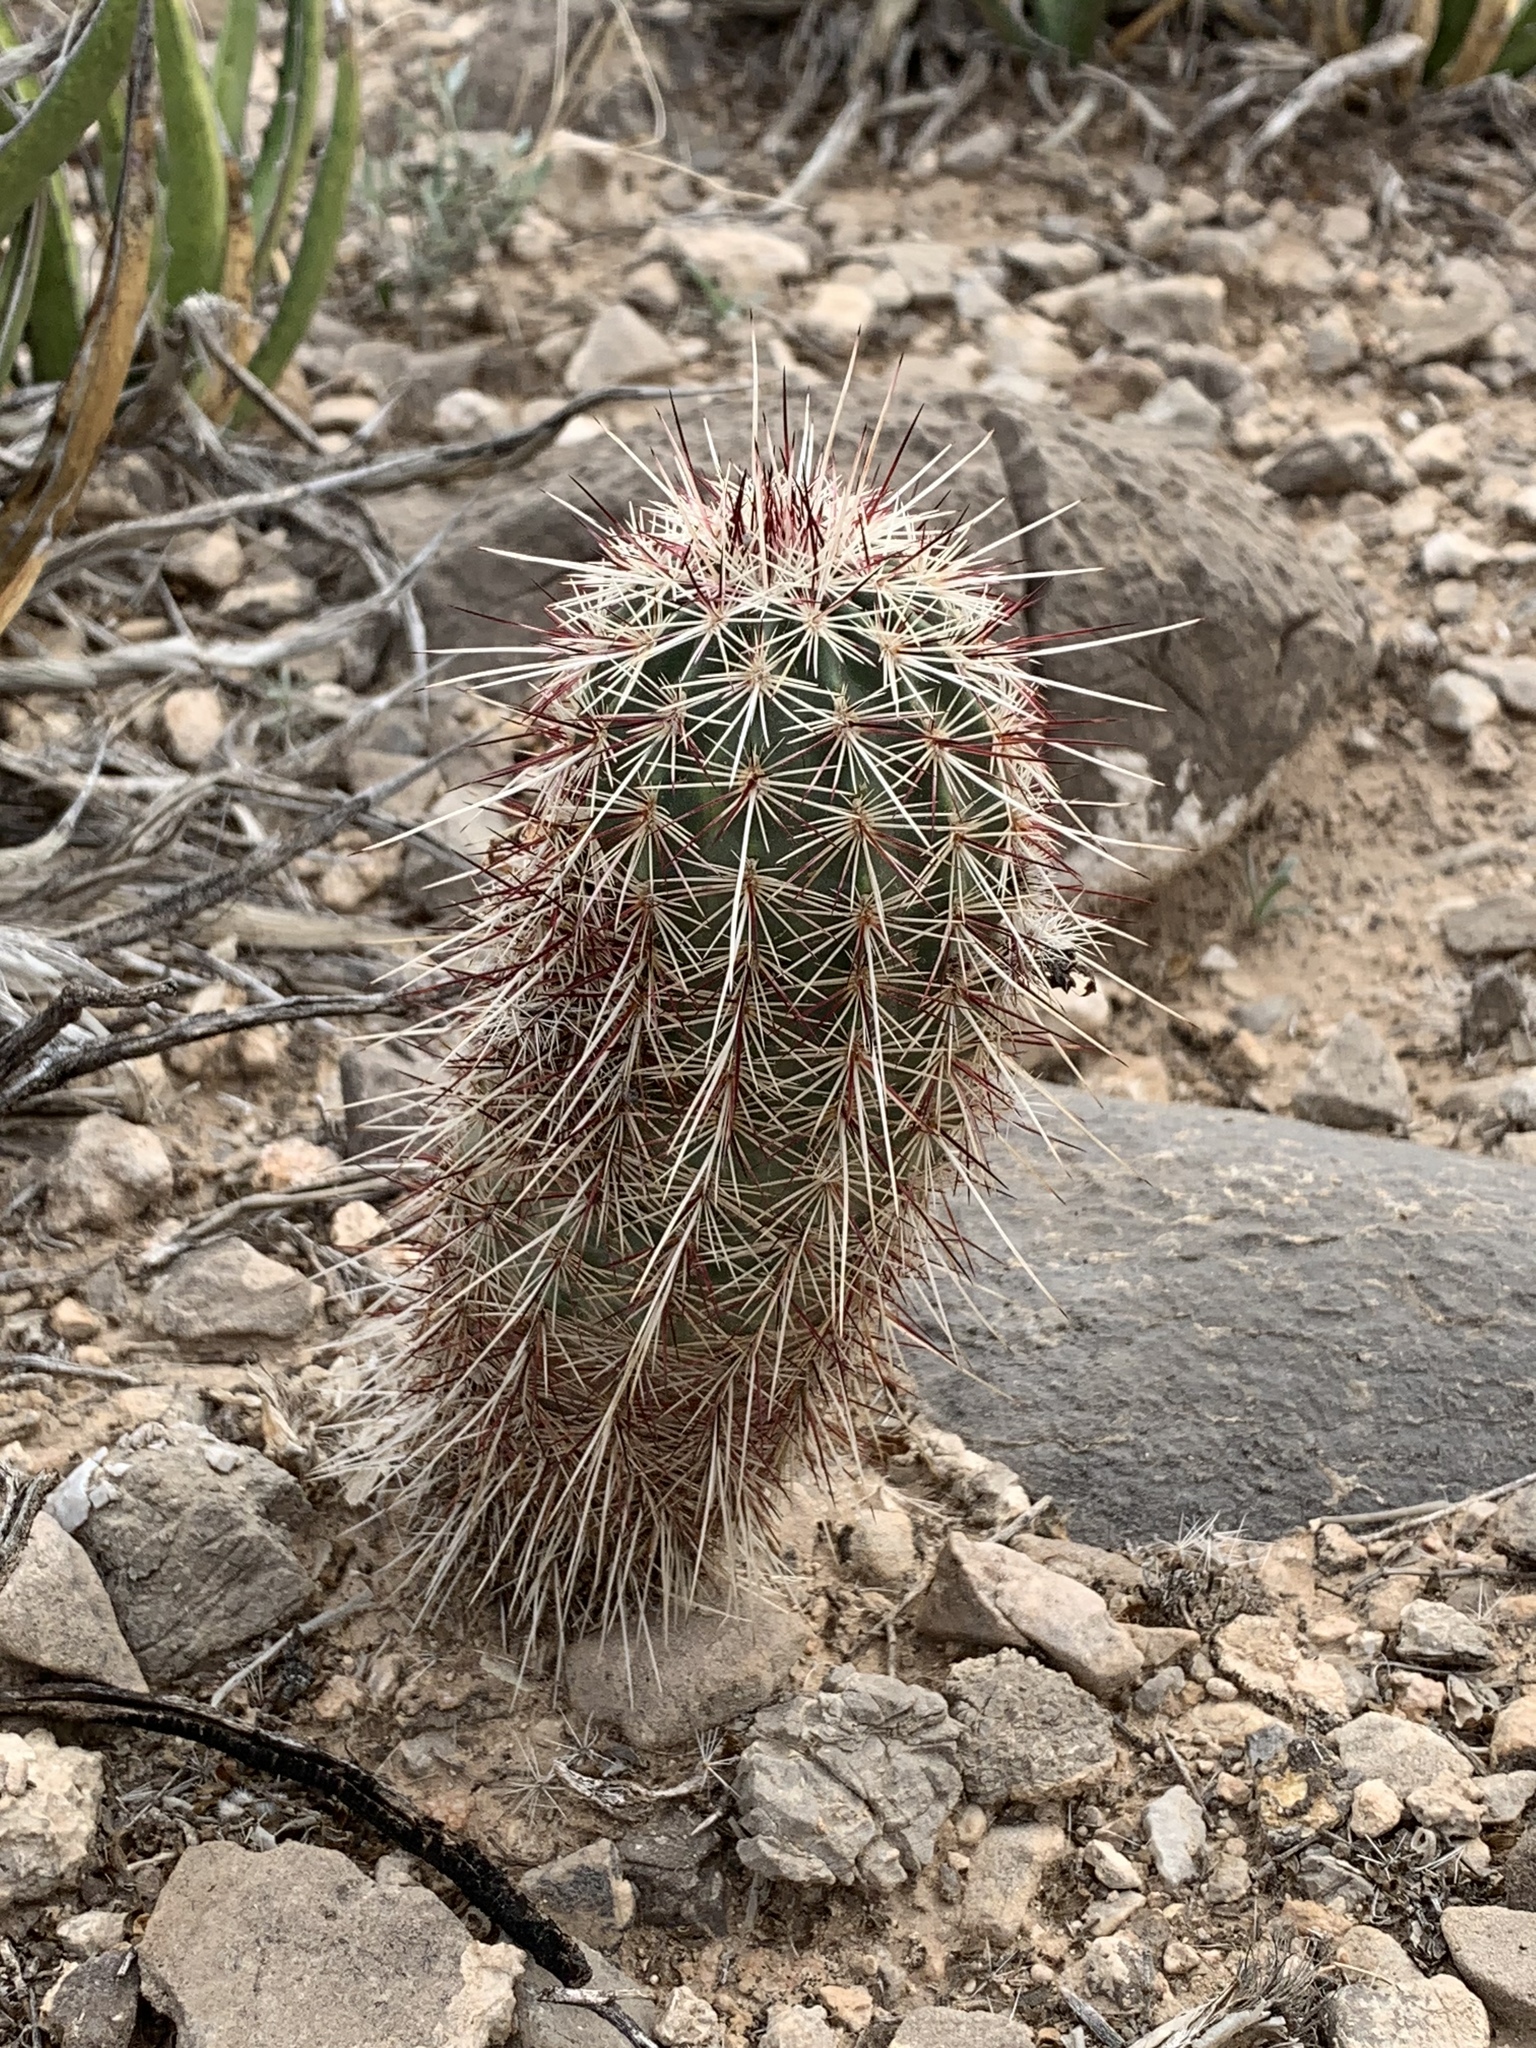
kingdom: Plantae
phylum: Tracheophyta
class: Magnoliopsida
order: Caryophyllales
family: Cactaceae
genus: Echinocereus
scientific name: Echinocereus viridiflorus
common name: Nylon hedgehog cactus
